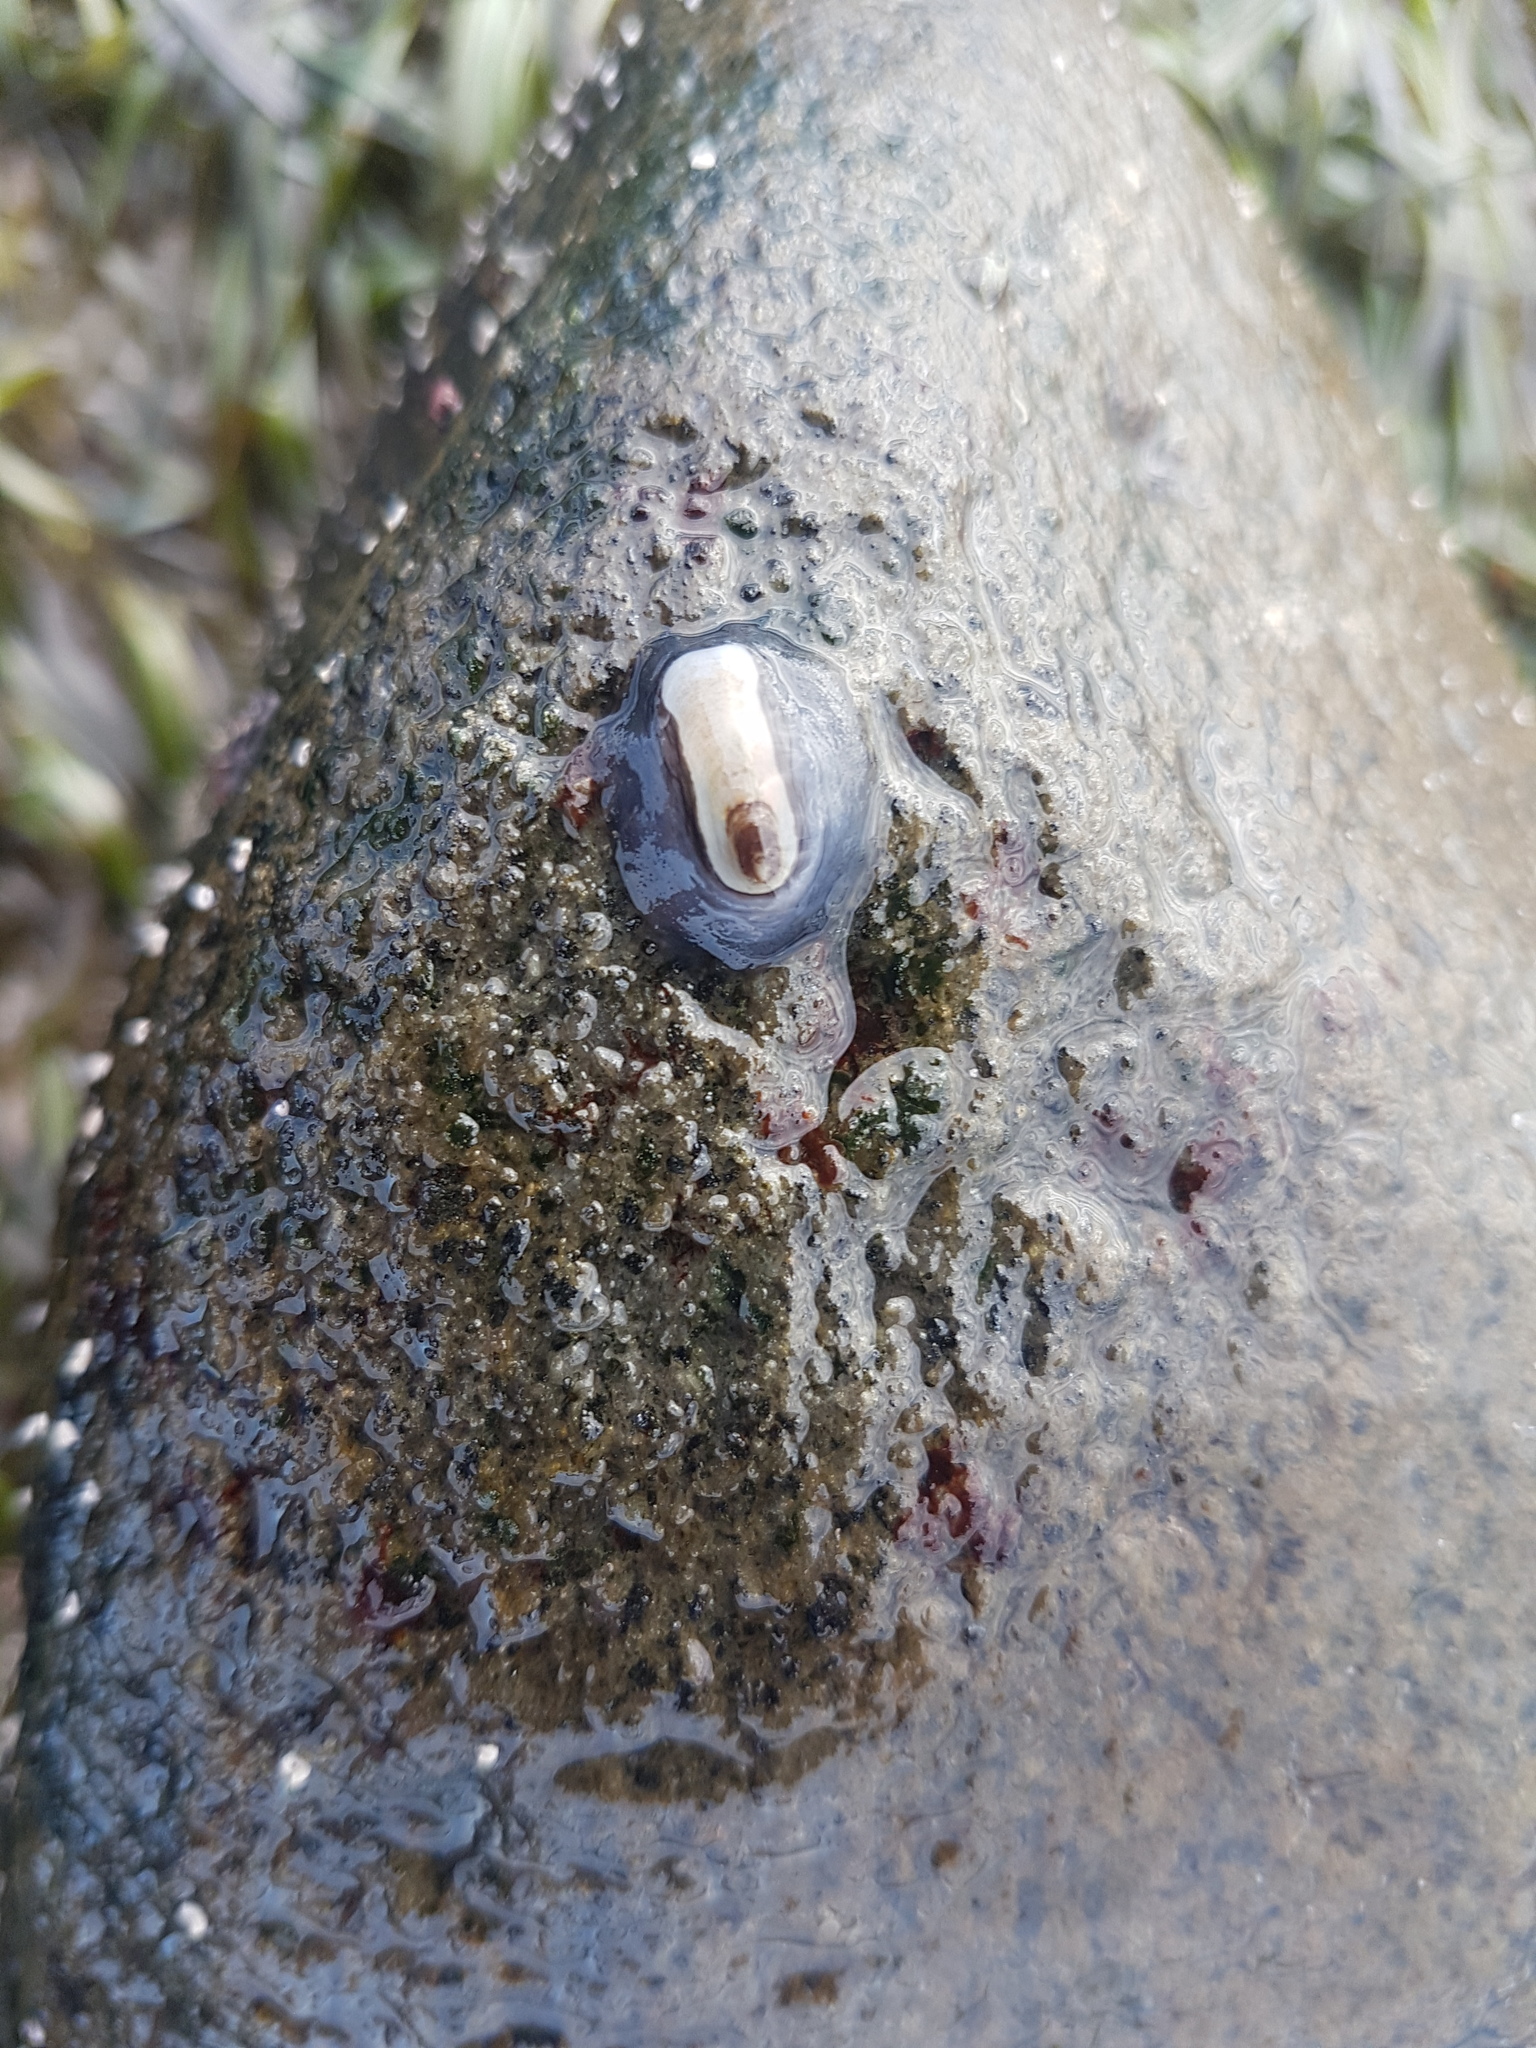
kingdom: Animalia
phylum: Mollusca
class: Gastropoda
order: Lepetellida
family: Fissurellidae
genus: Scutus
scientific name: Scutus breviculus
